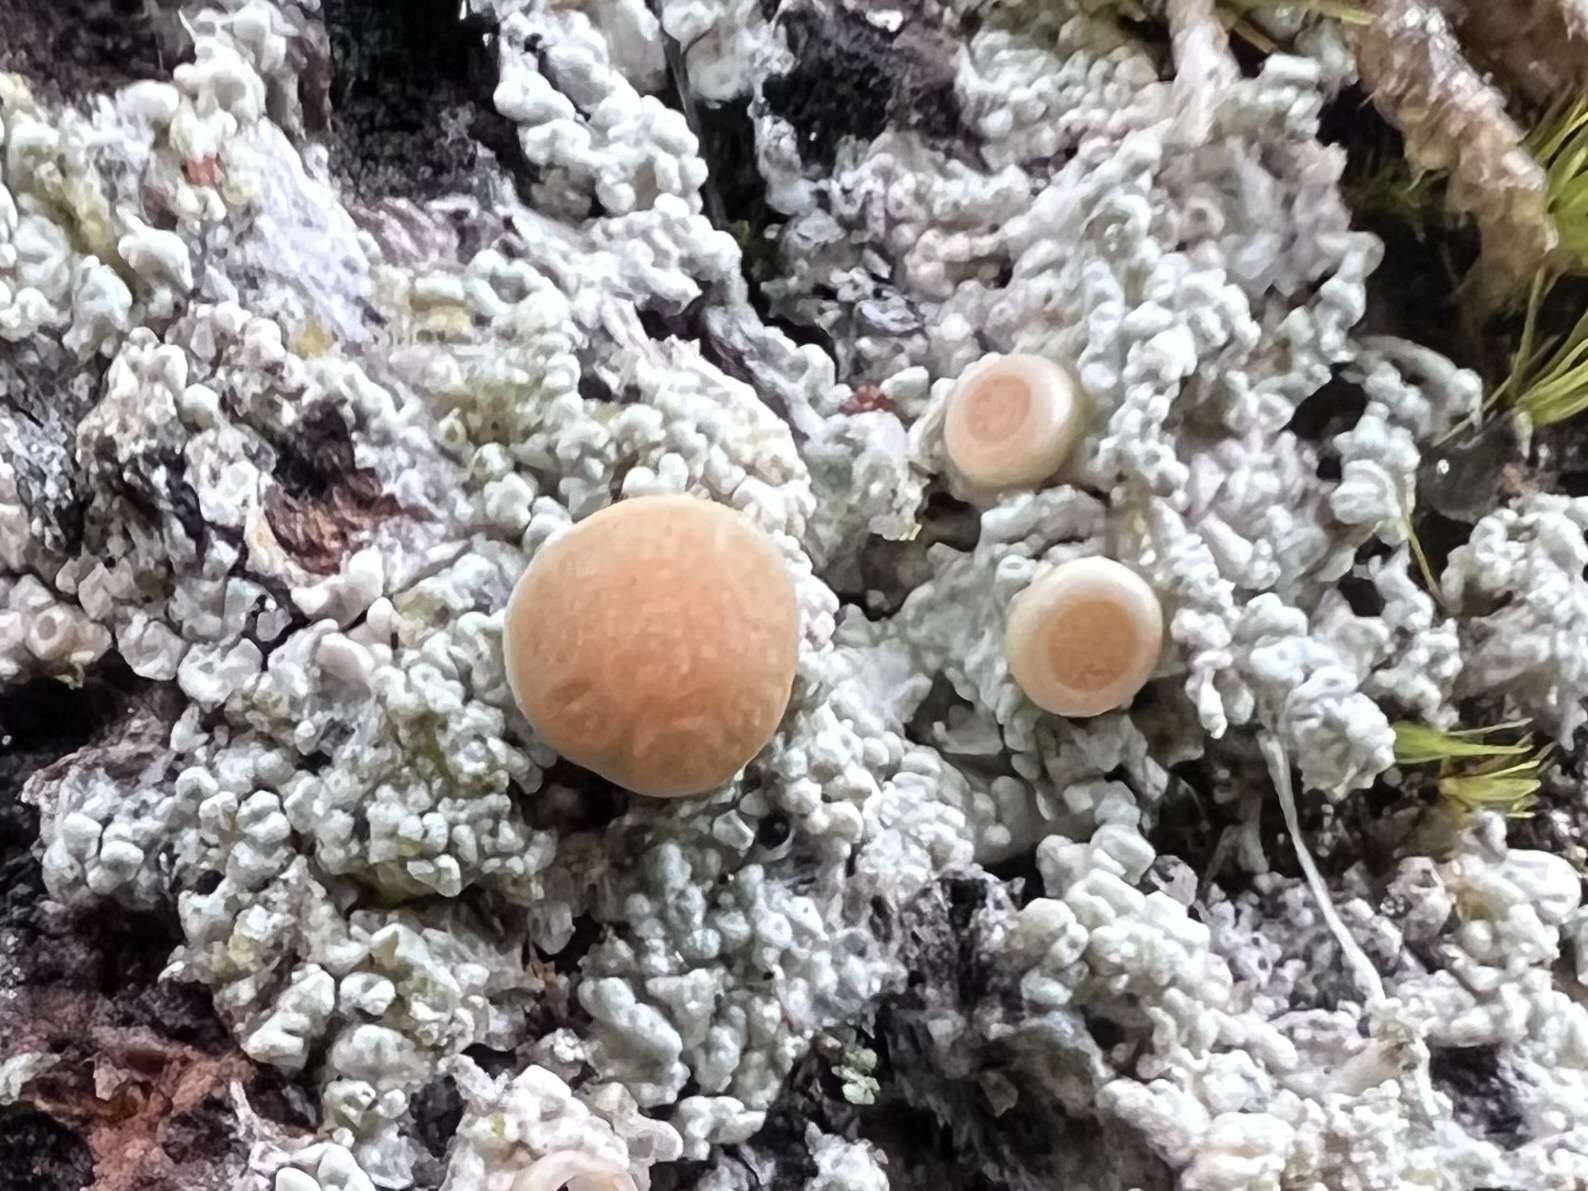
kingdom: Fungi
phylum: Ascomycota
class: Lecanoromycetes
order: Pertusariales
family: Ochrolechiaceae
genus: Ochrolechia
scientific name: Ochrolechia oregonensis
